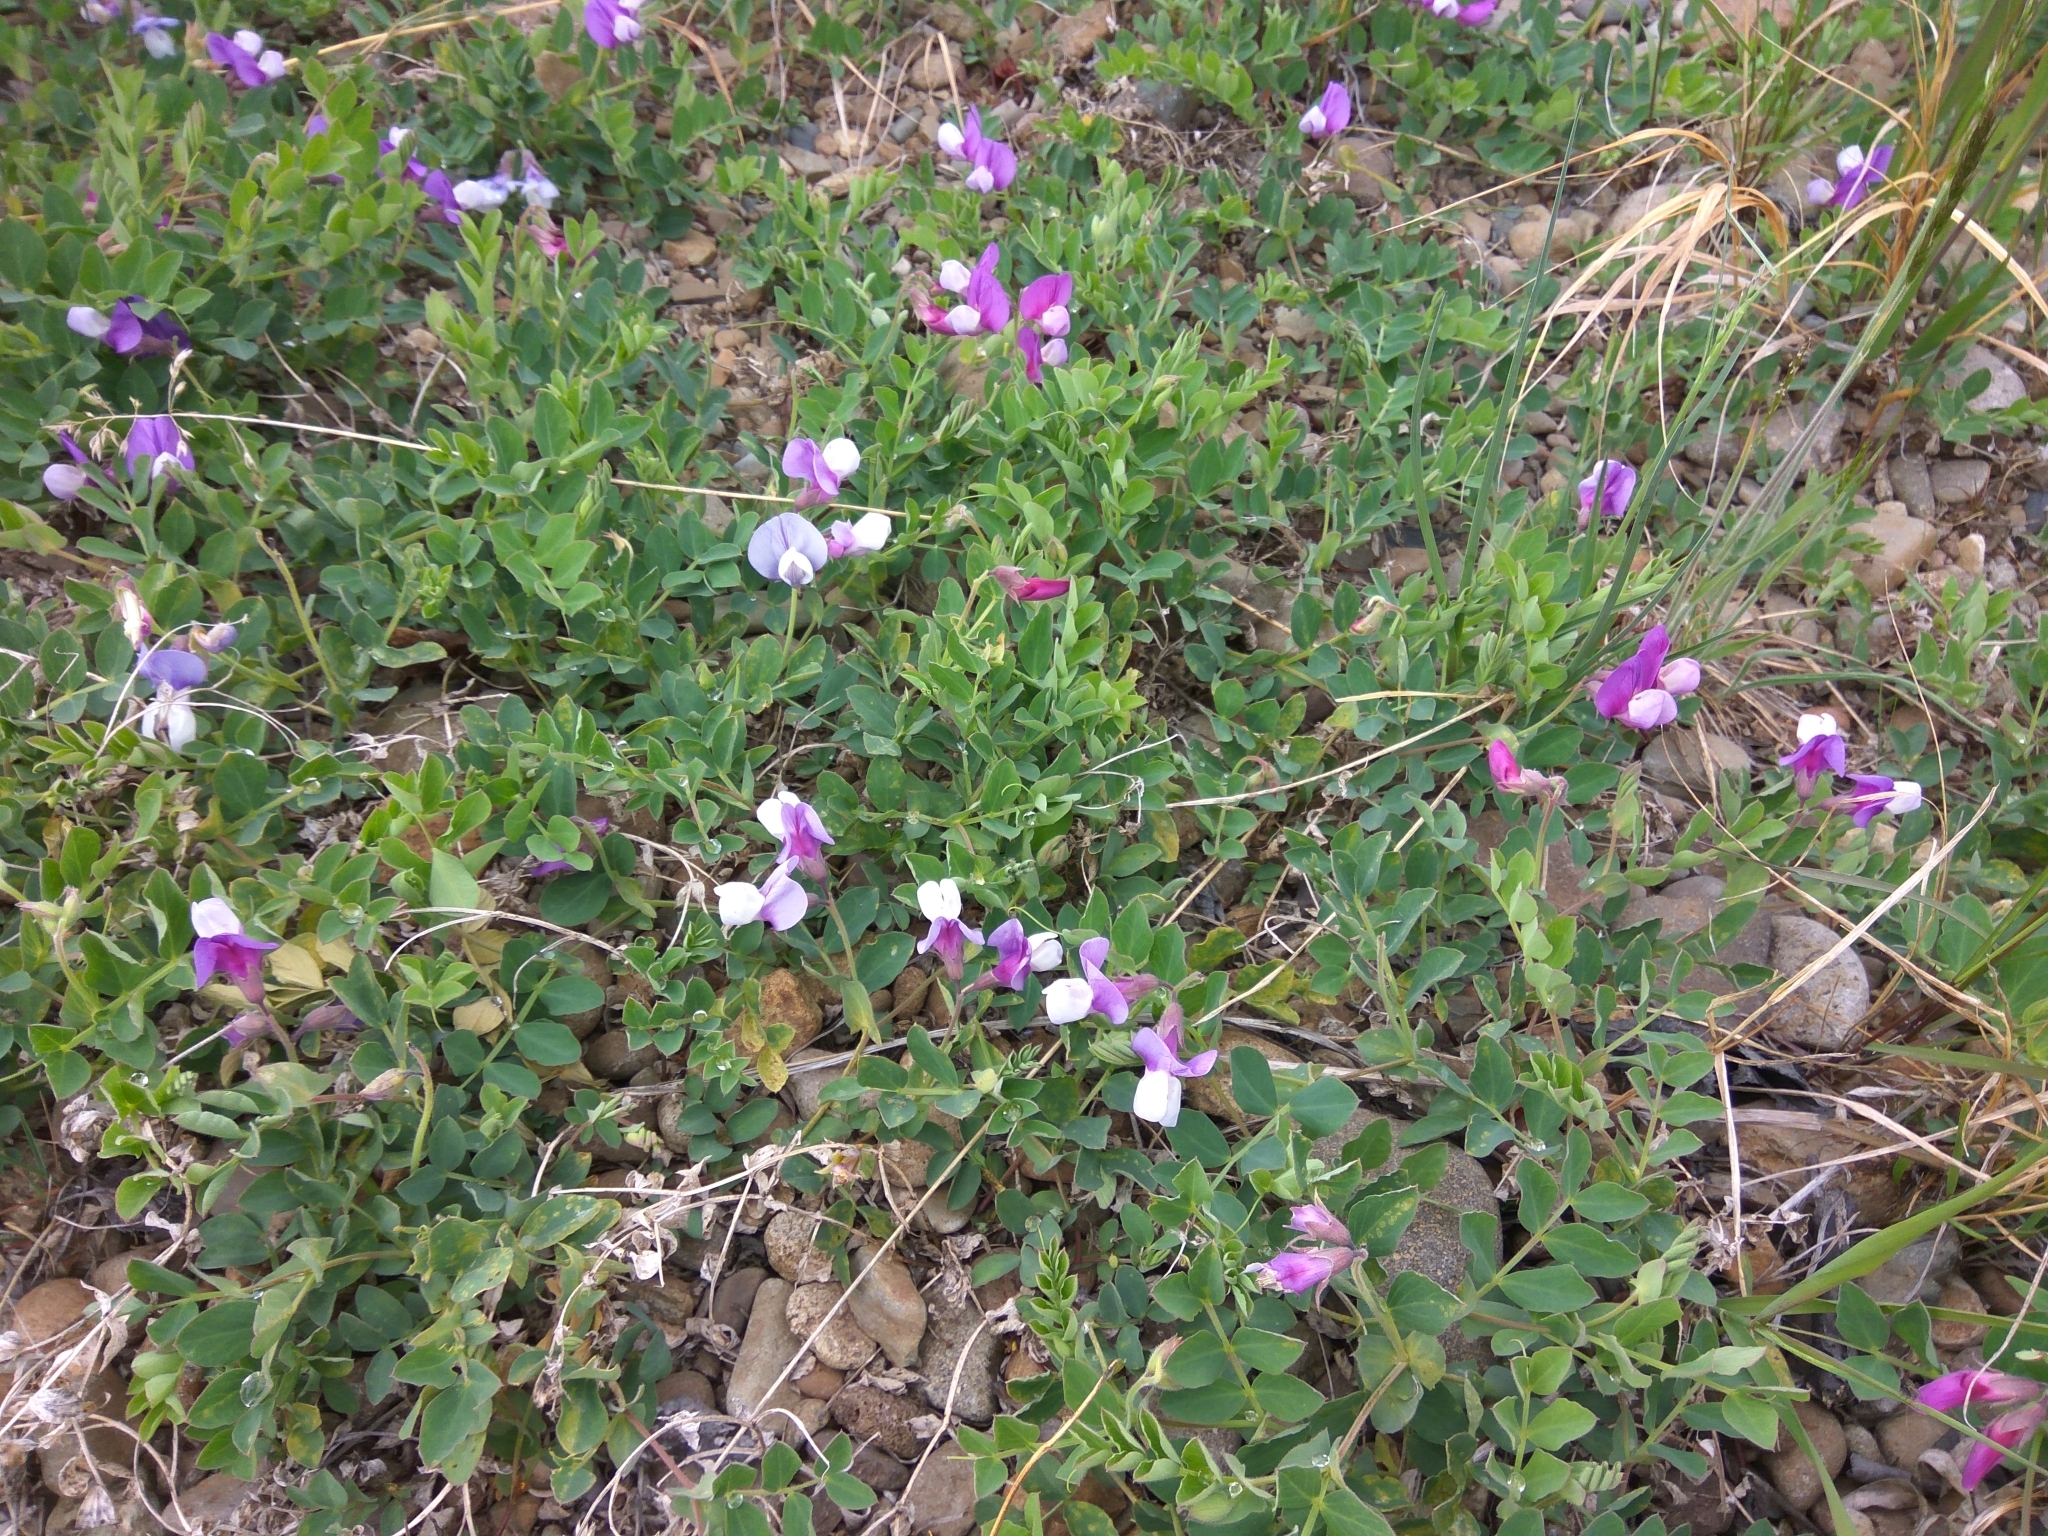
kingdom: Plantae
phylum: Tracheophyta
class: Magnoliopsida
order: Fabales
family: Fabaceae
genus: Lathyrus
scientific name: Lathyrus japonicus
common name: Sea pea
